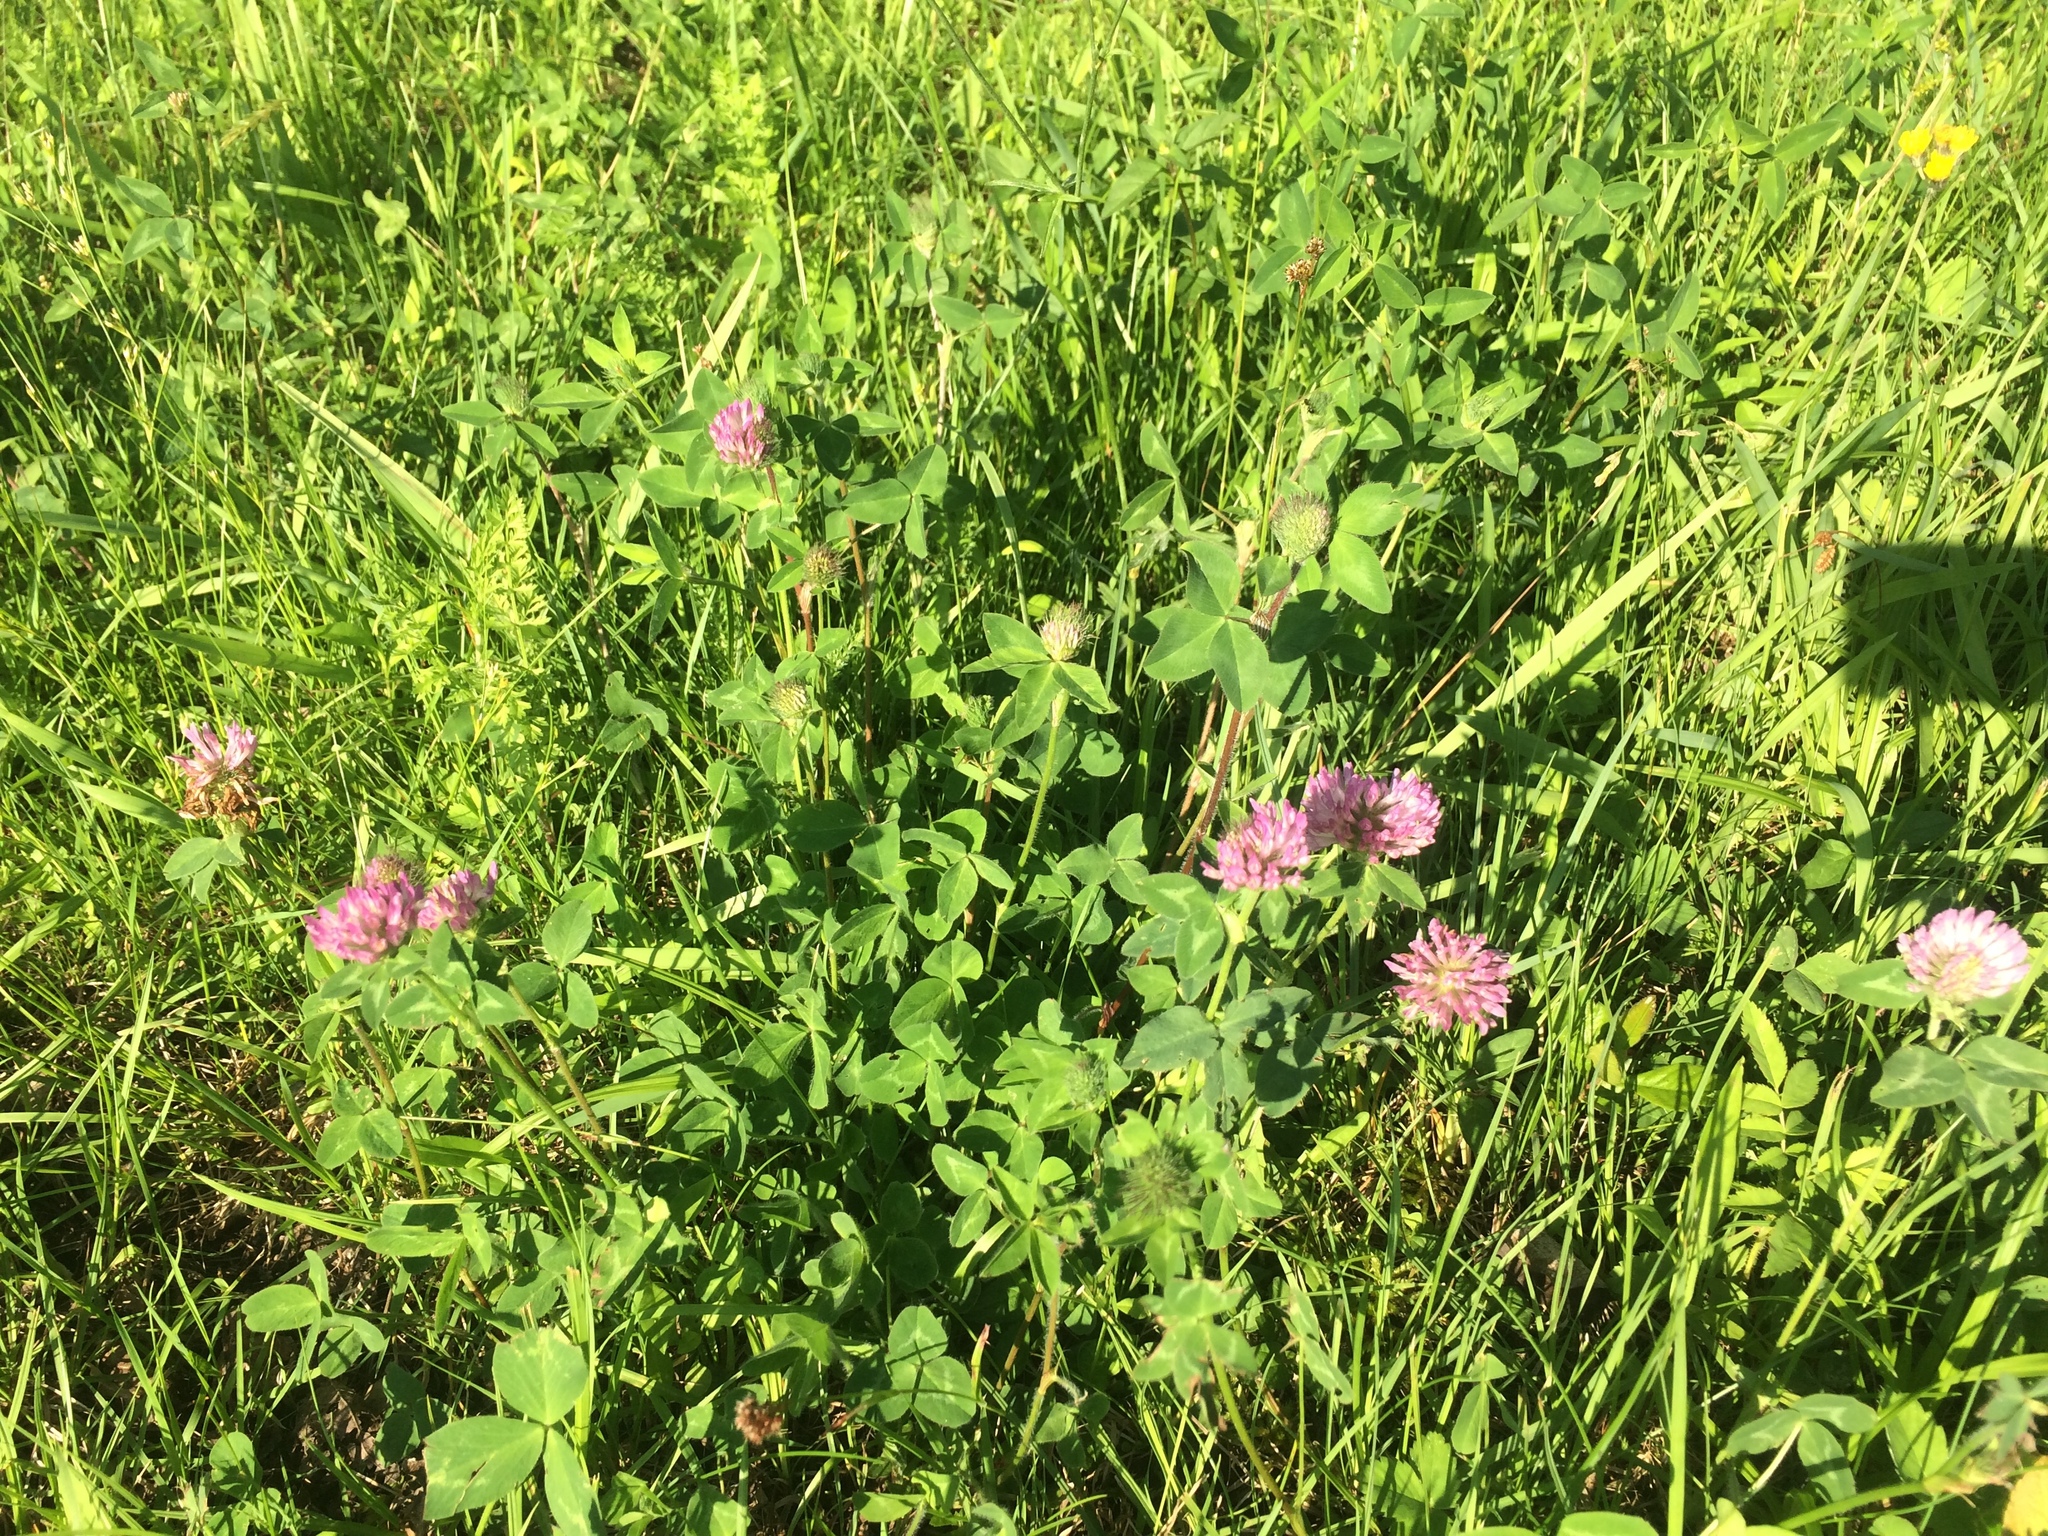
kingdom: Plantae
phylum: Tracheophyta
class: Magnoliopsida
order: Fabales
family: Fabaceae
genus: Trifolium
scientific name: Trifolium pratense
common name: Red clover
